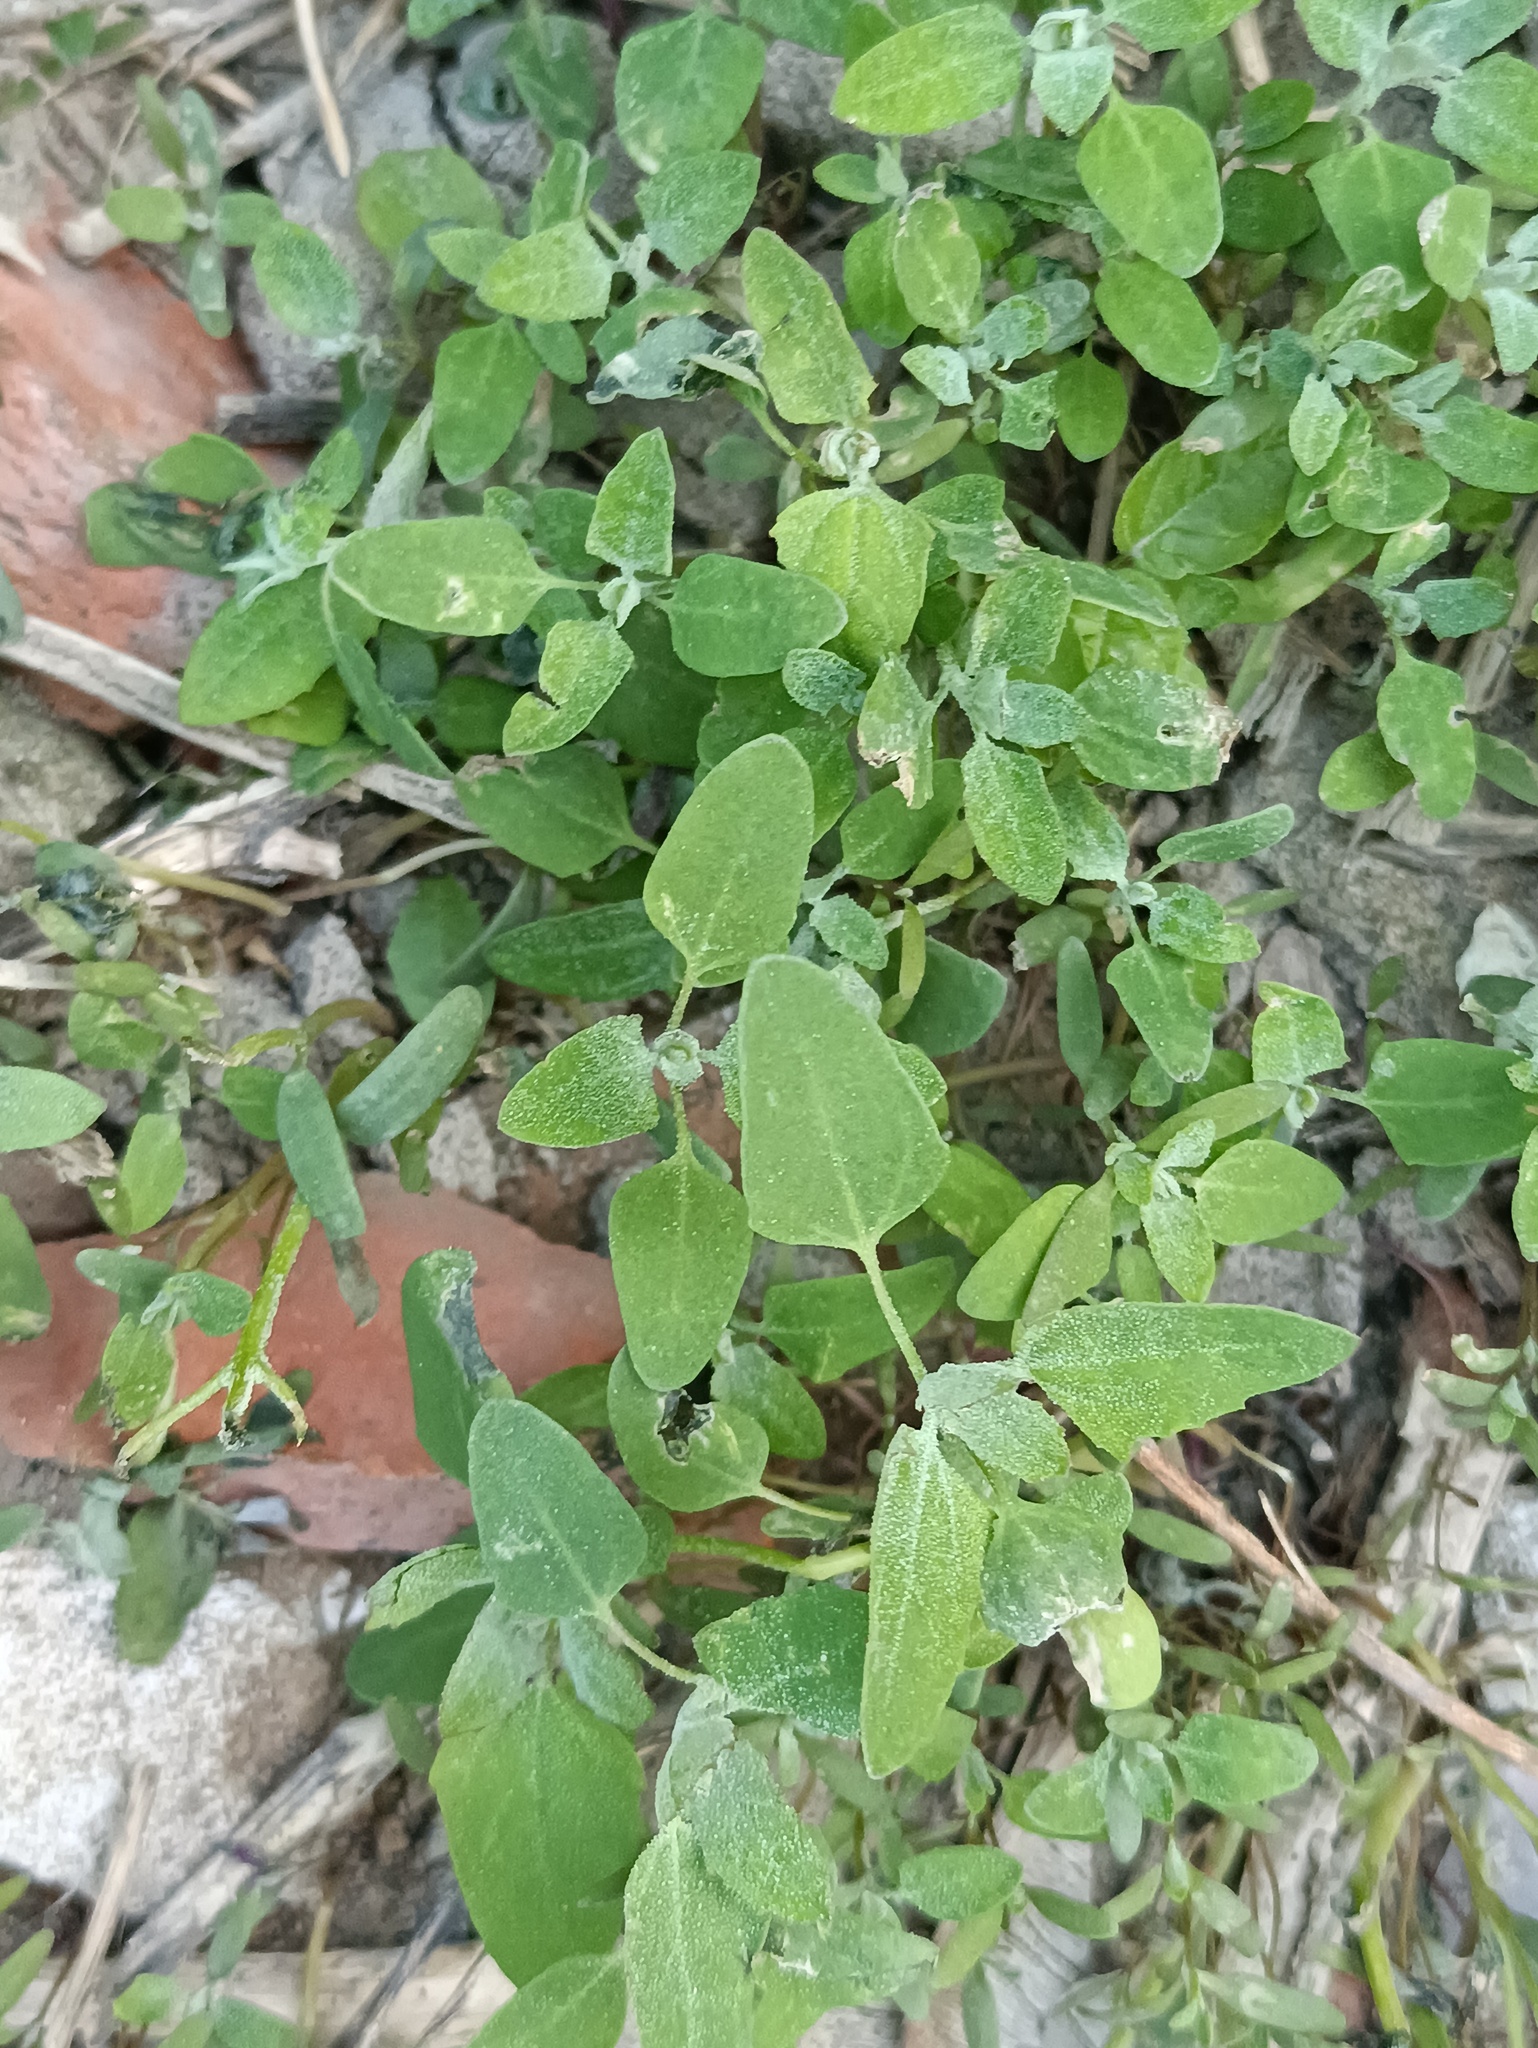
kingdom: Plantae
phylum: Tracheophyta
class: Magnoliopsida
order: Caryophyllales
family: Amaranthaceae
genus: Chenopodium
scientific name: Chenopodium album
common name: Fat-hen
